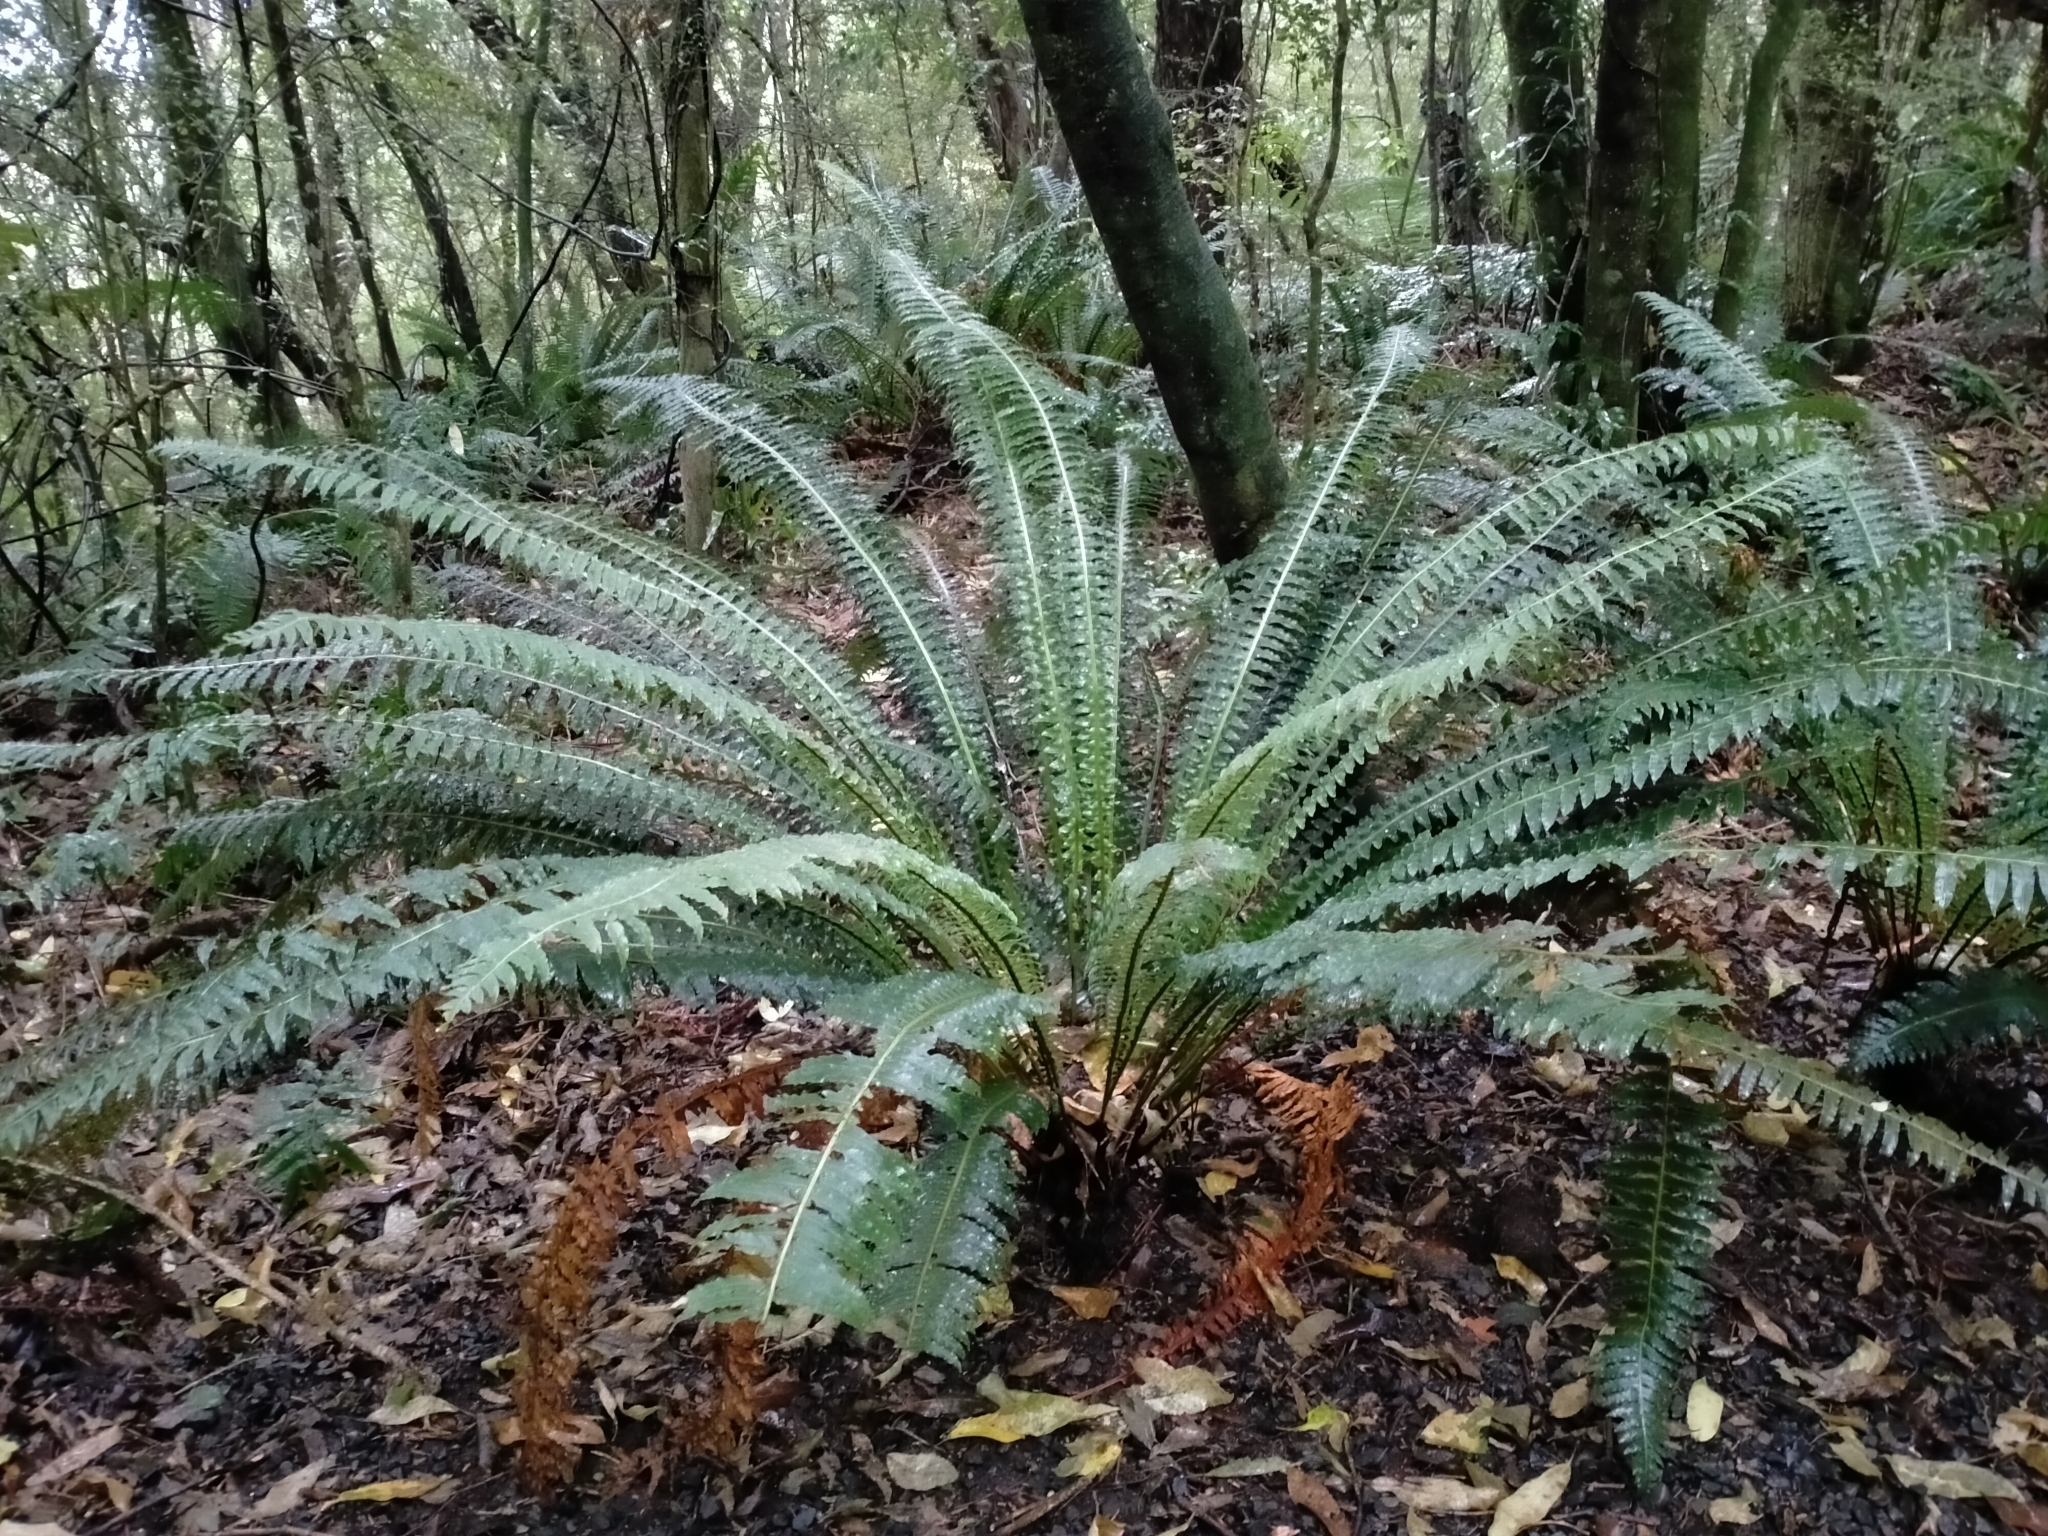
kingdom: Plantae
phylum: Tracheophyta
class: Polypodiopsida
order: Polypodiales
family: Blechnaceae
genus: Lomaria
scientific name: Lomaria discolor
